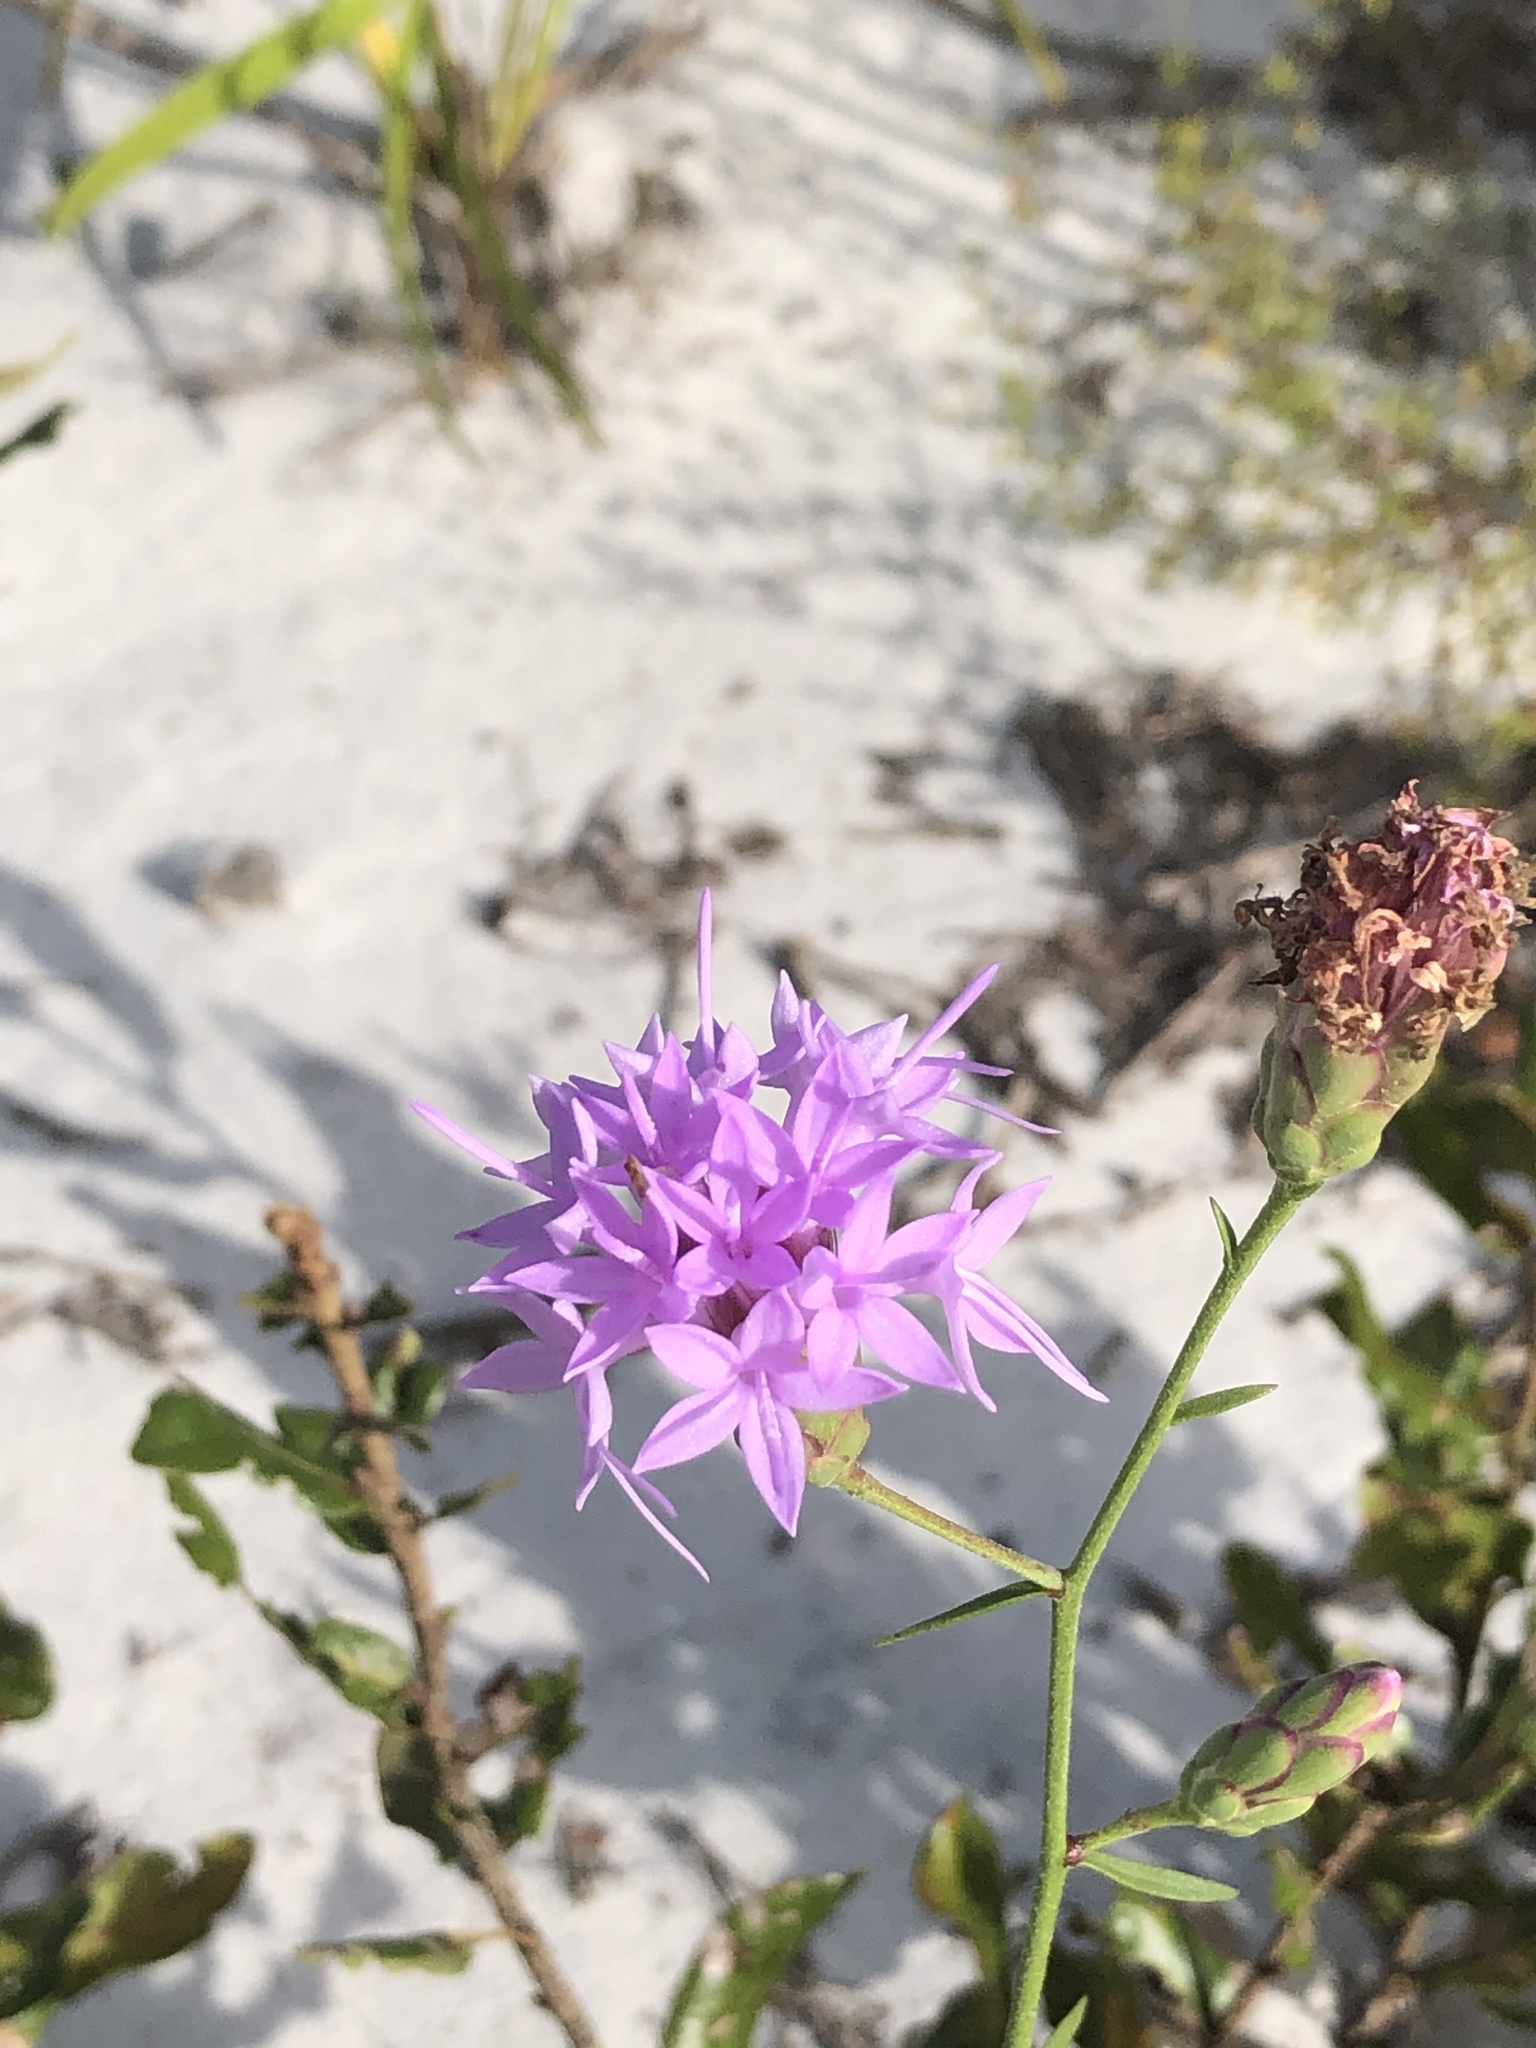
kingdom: Plantae
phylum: Tracheophyta
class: Magnoliopsida
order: Asterales
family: Asteraceae
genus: Liatris
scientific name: Liatris ohlingerae
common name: Scrub blazingstar
